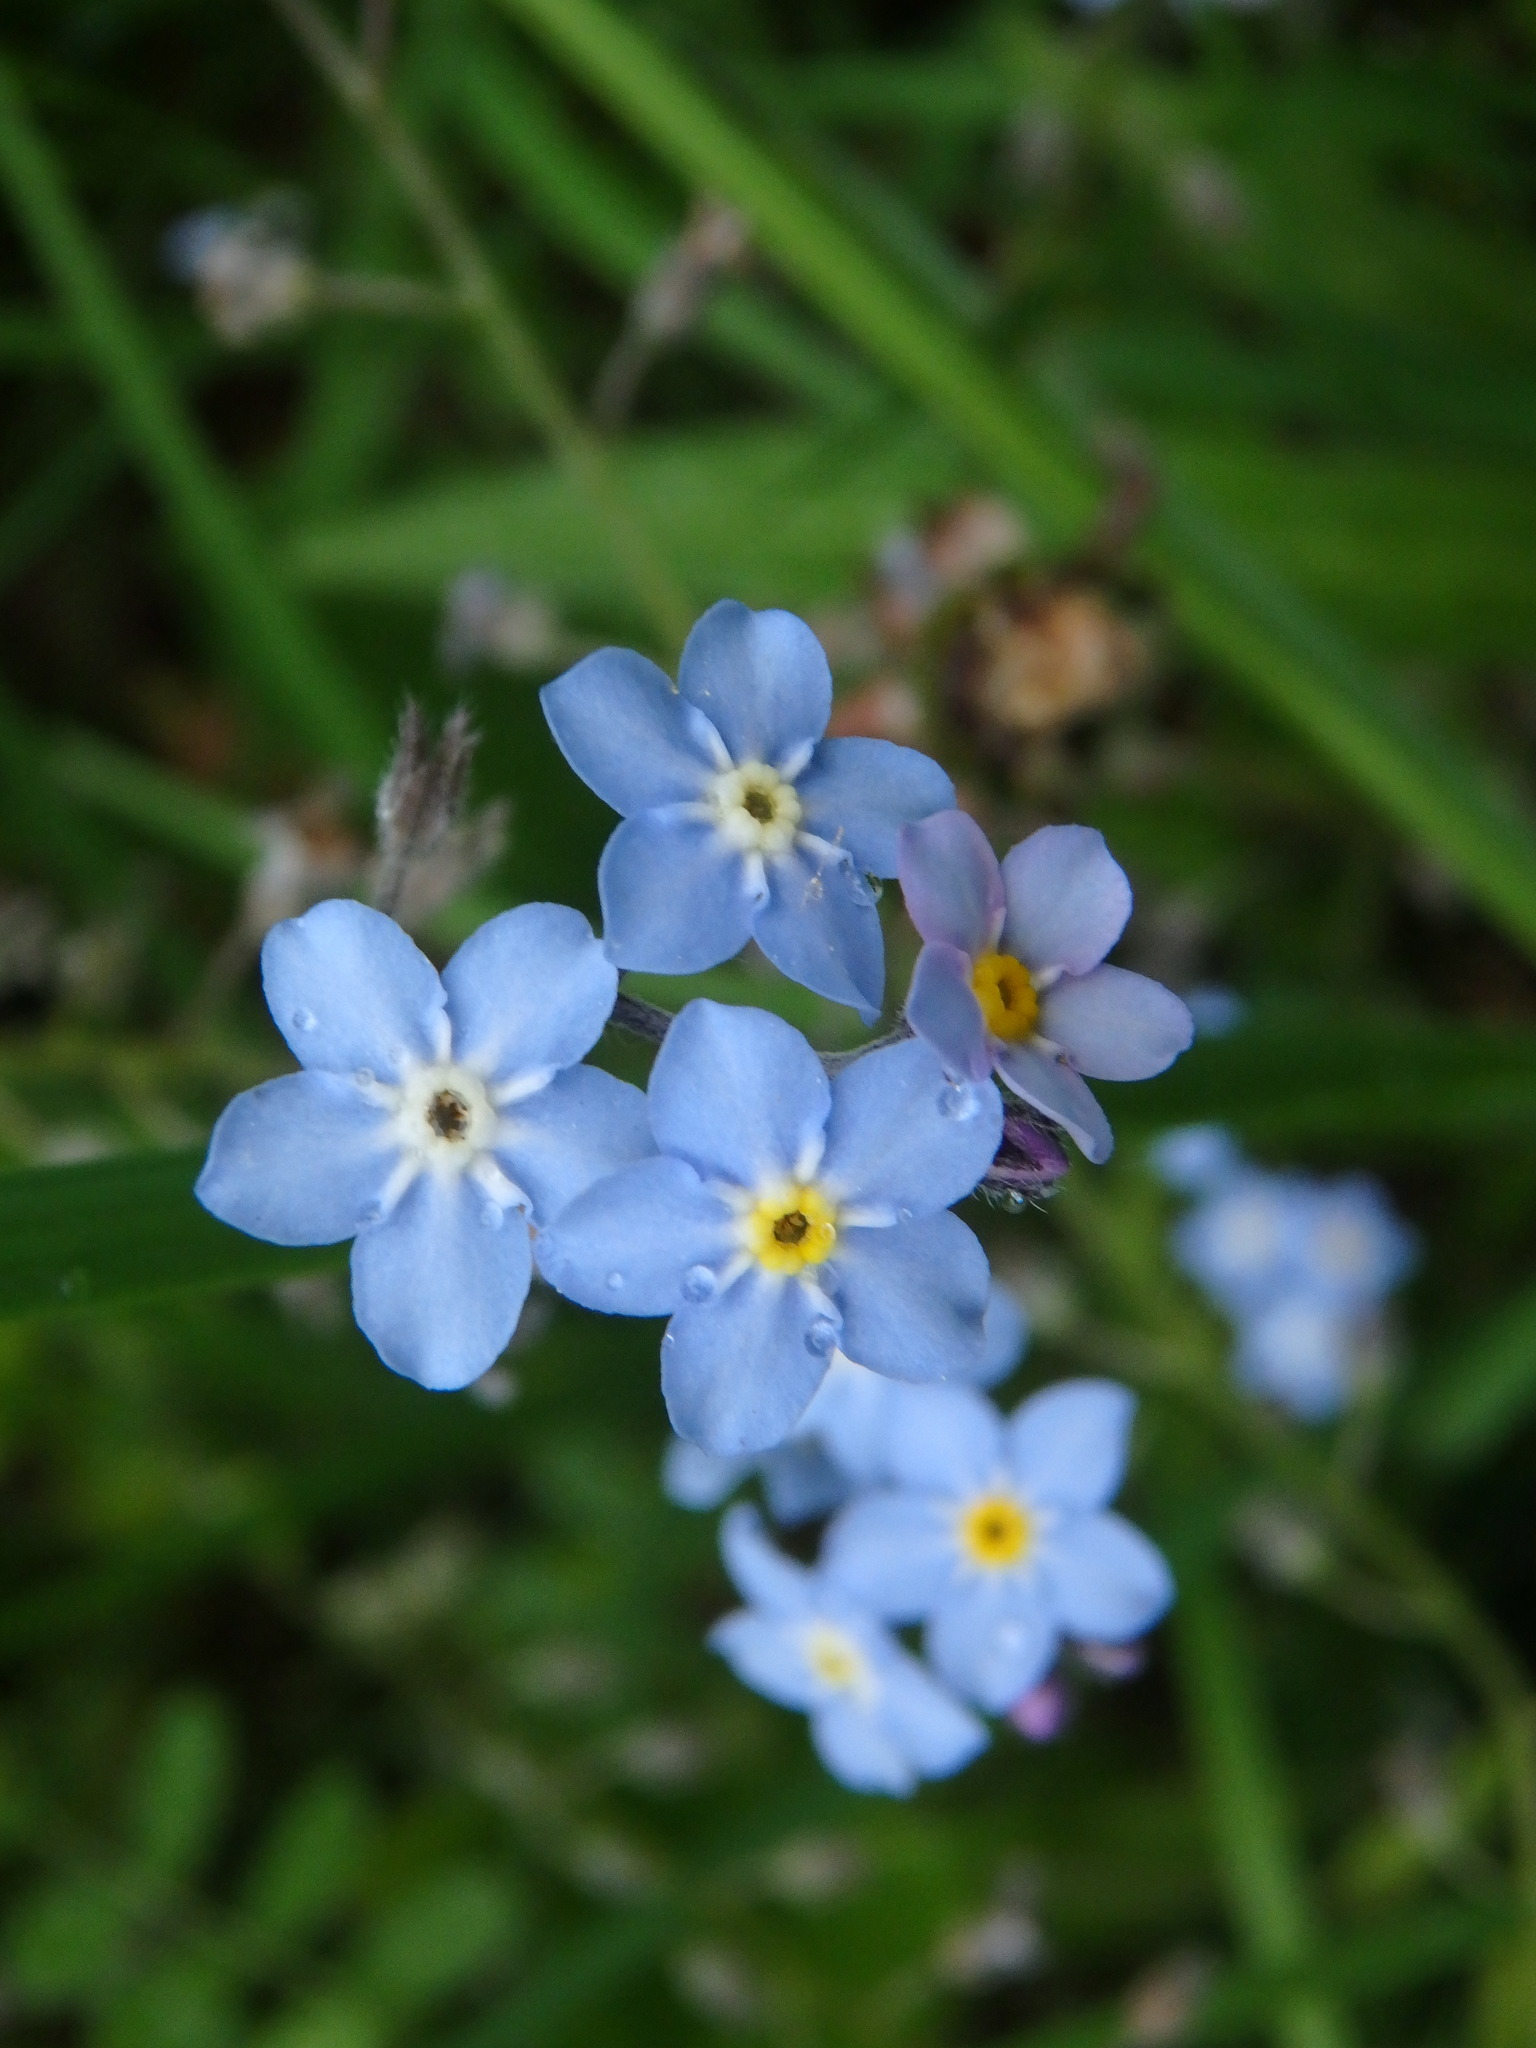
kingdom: Plantae
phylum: Tracheophyta
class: Magnoliopsida
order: Boraginales
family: Boraginaceae
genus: Myosotis
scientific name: Myosotis sylvatica
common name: Wood forget-me-not
